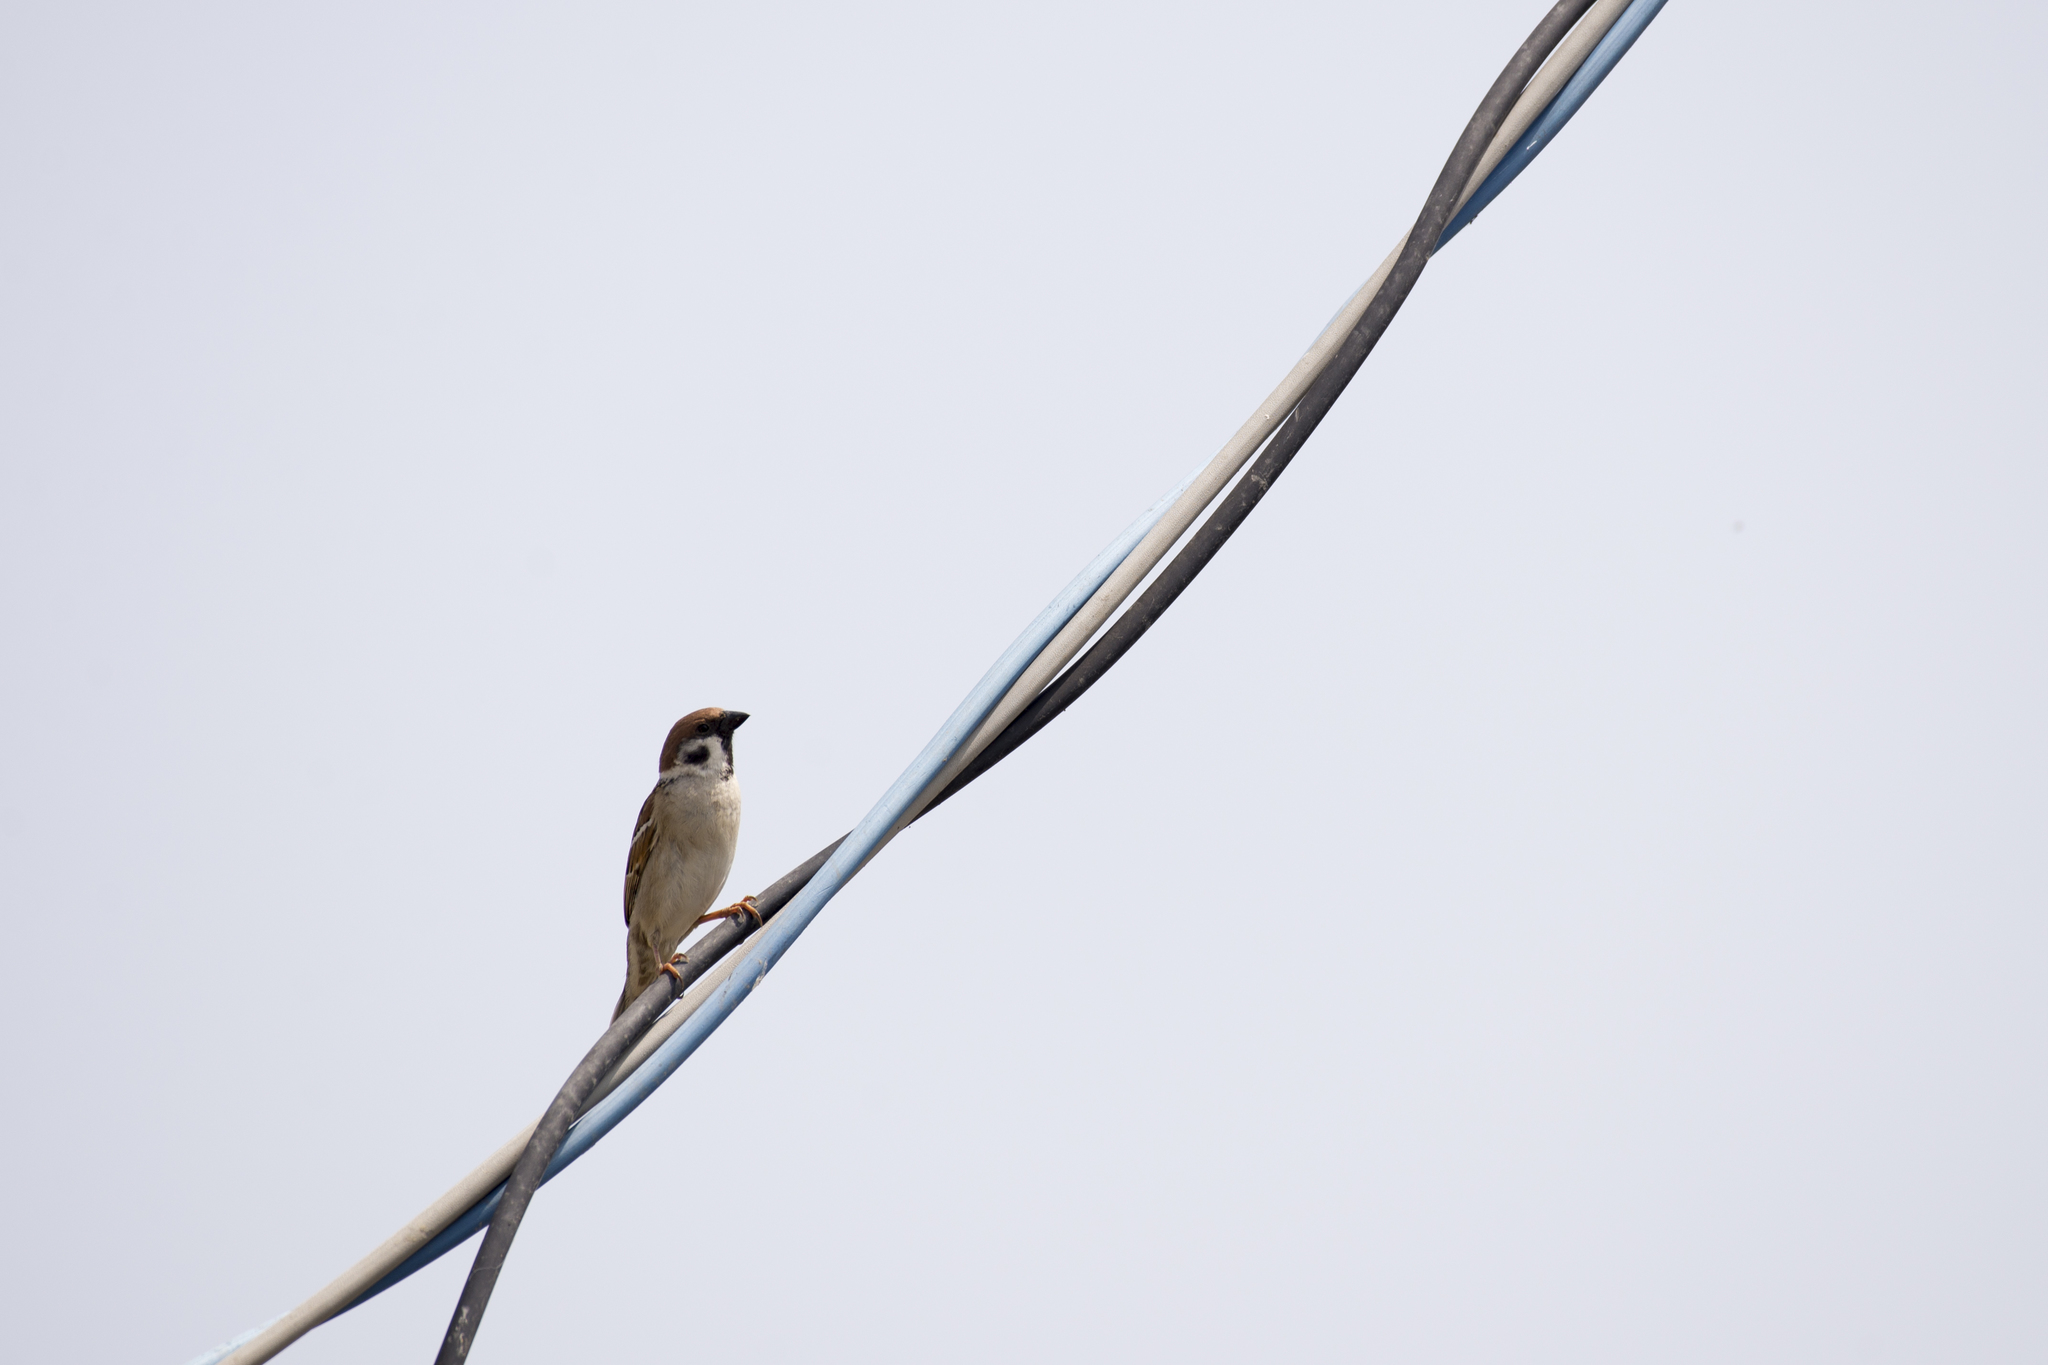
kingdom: Animalia
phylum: Chordata
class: Aves
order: Passeriformes
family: Passeridae
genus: Passer
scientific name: Passer montanus
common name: Eurasian tree sparrow
